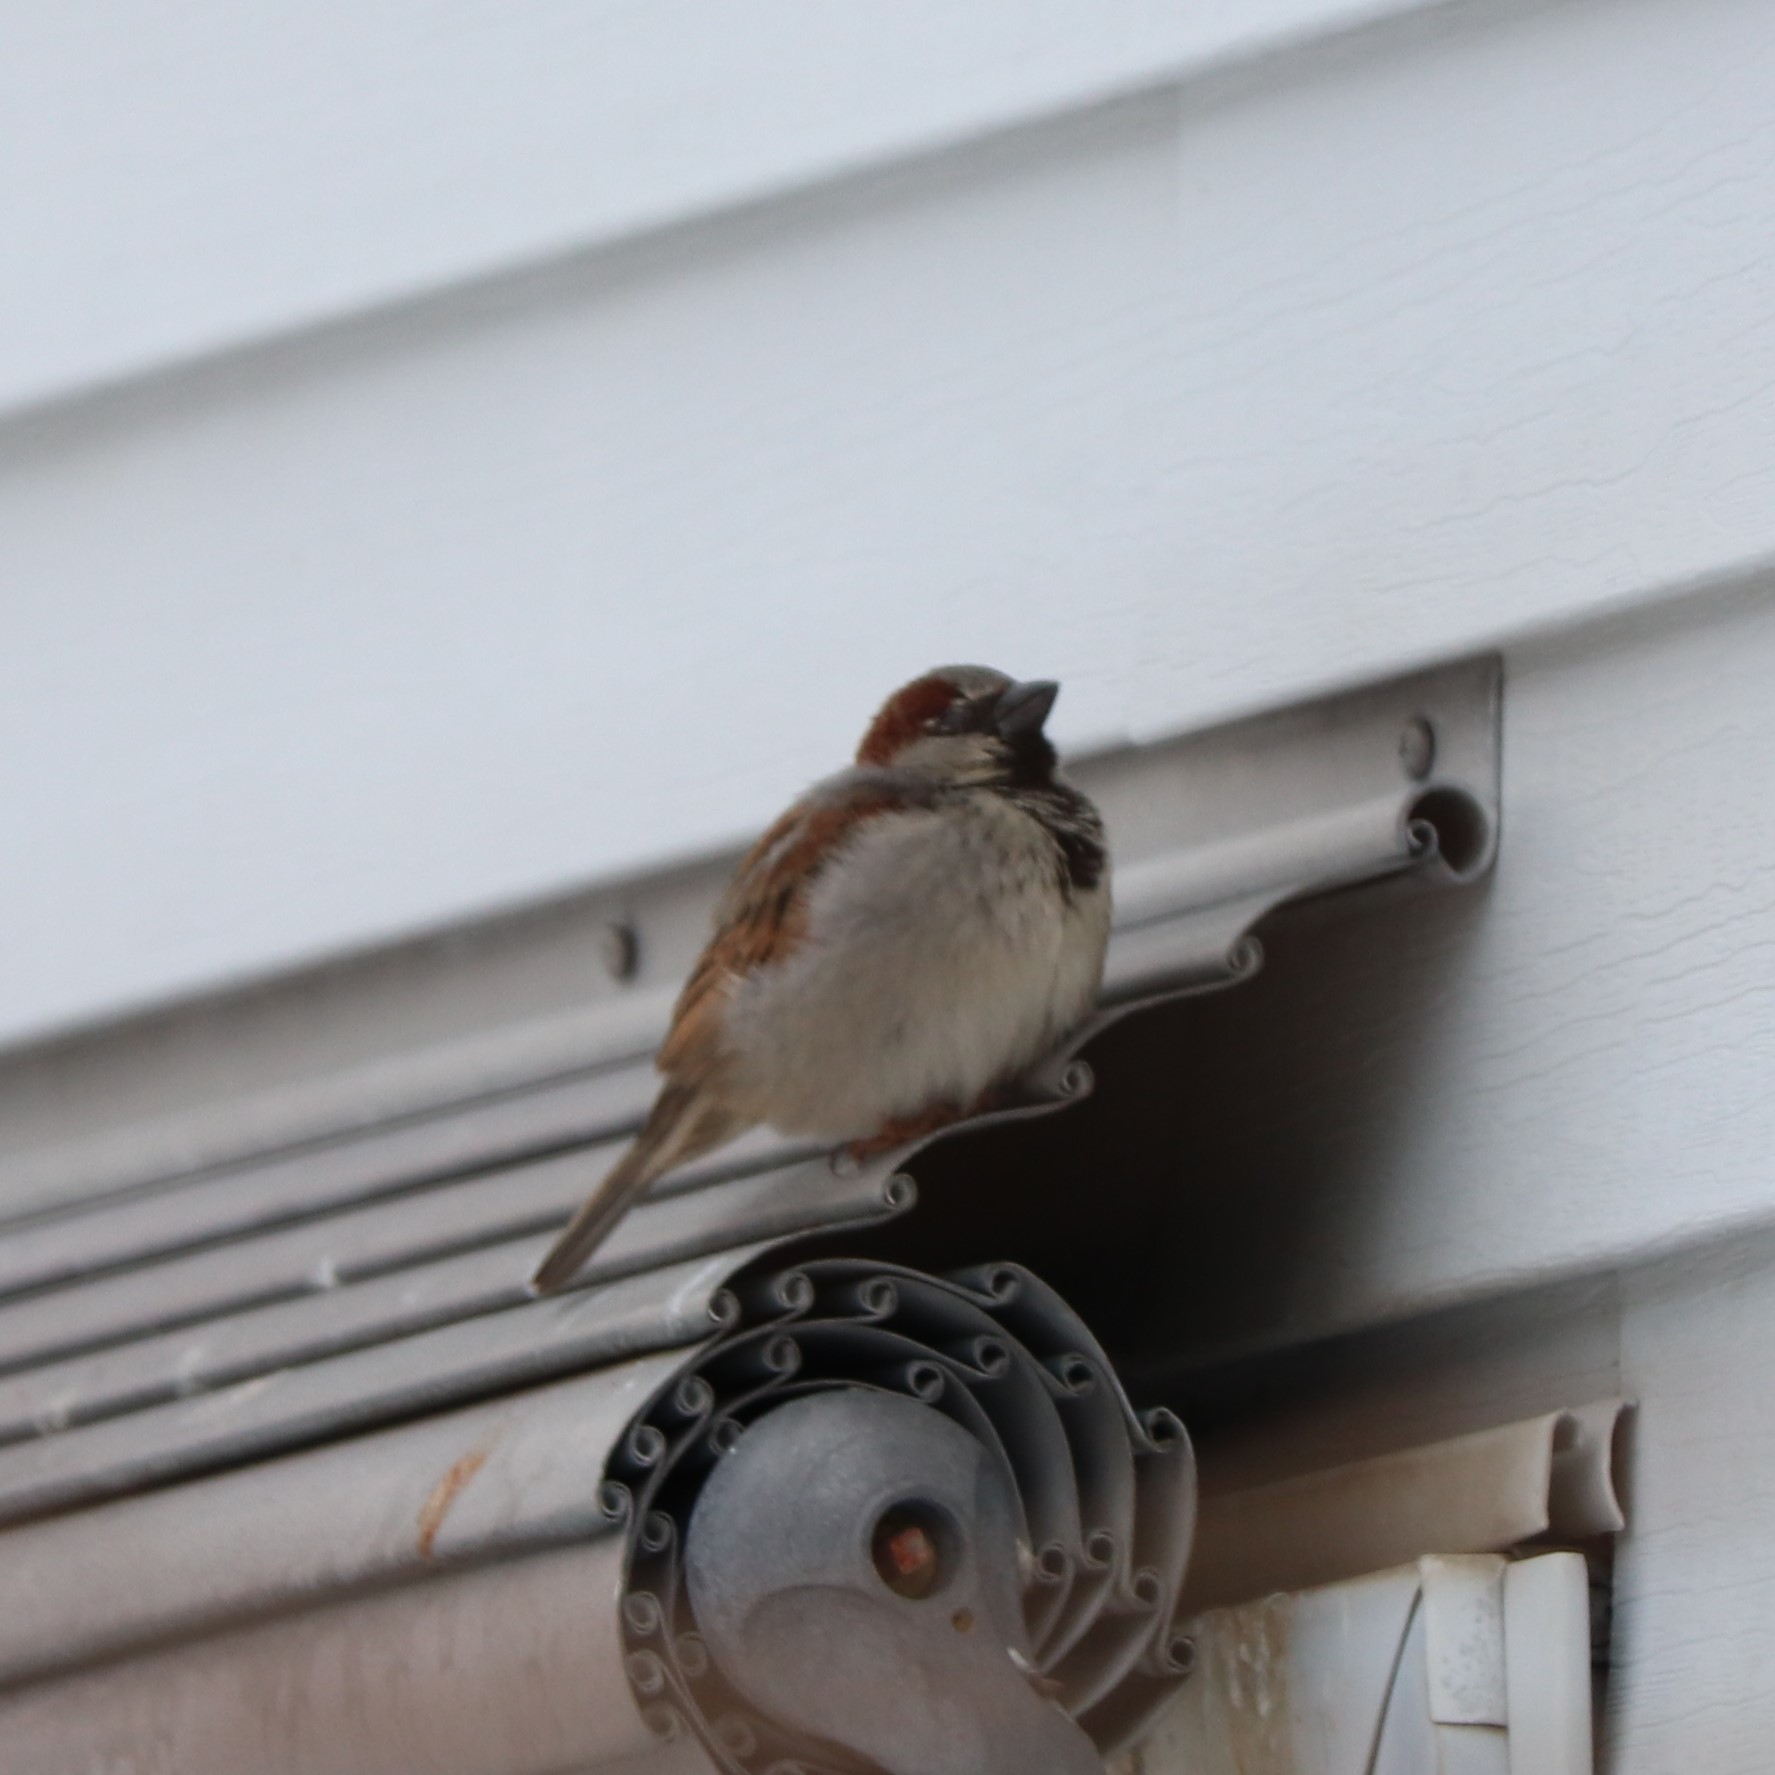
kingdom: Animalia
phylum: Chordata
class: Aves
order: Passeriformes
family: Passeridae
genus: Passer
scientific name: Passer domesticus
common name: House sparrow
